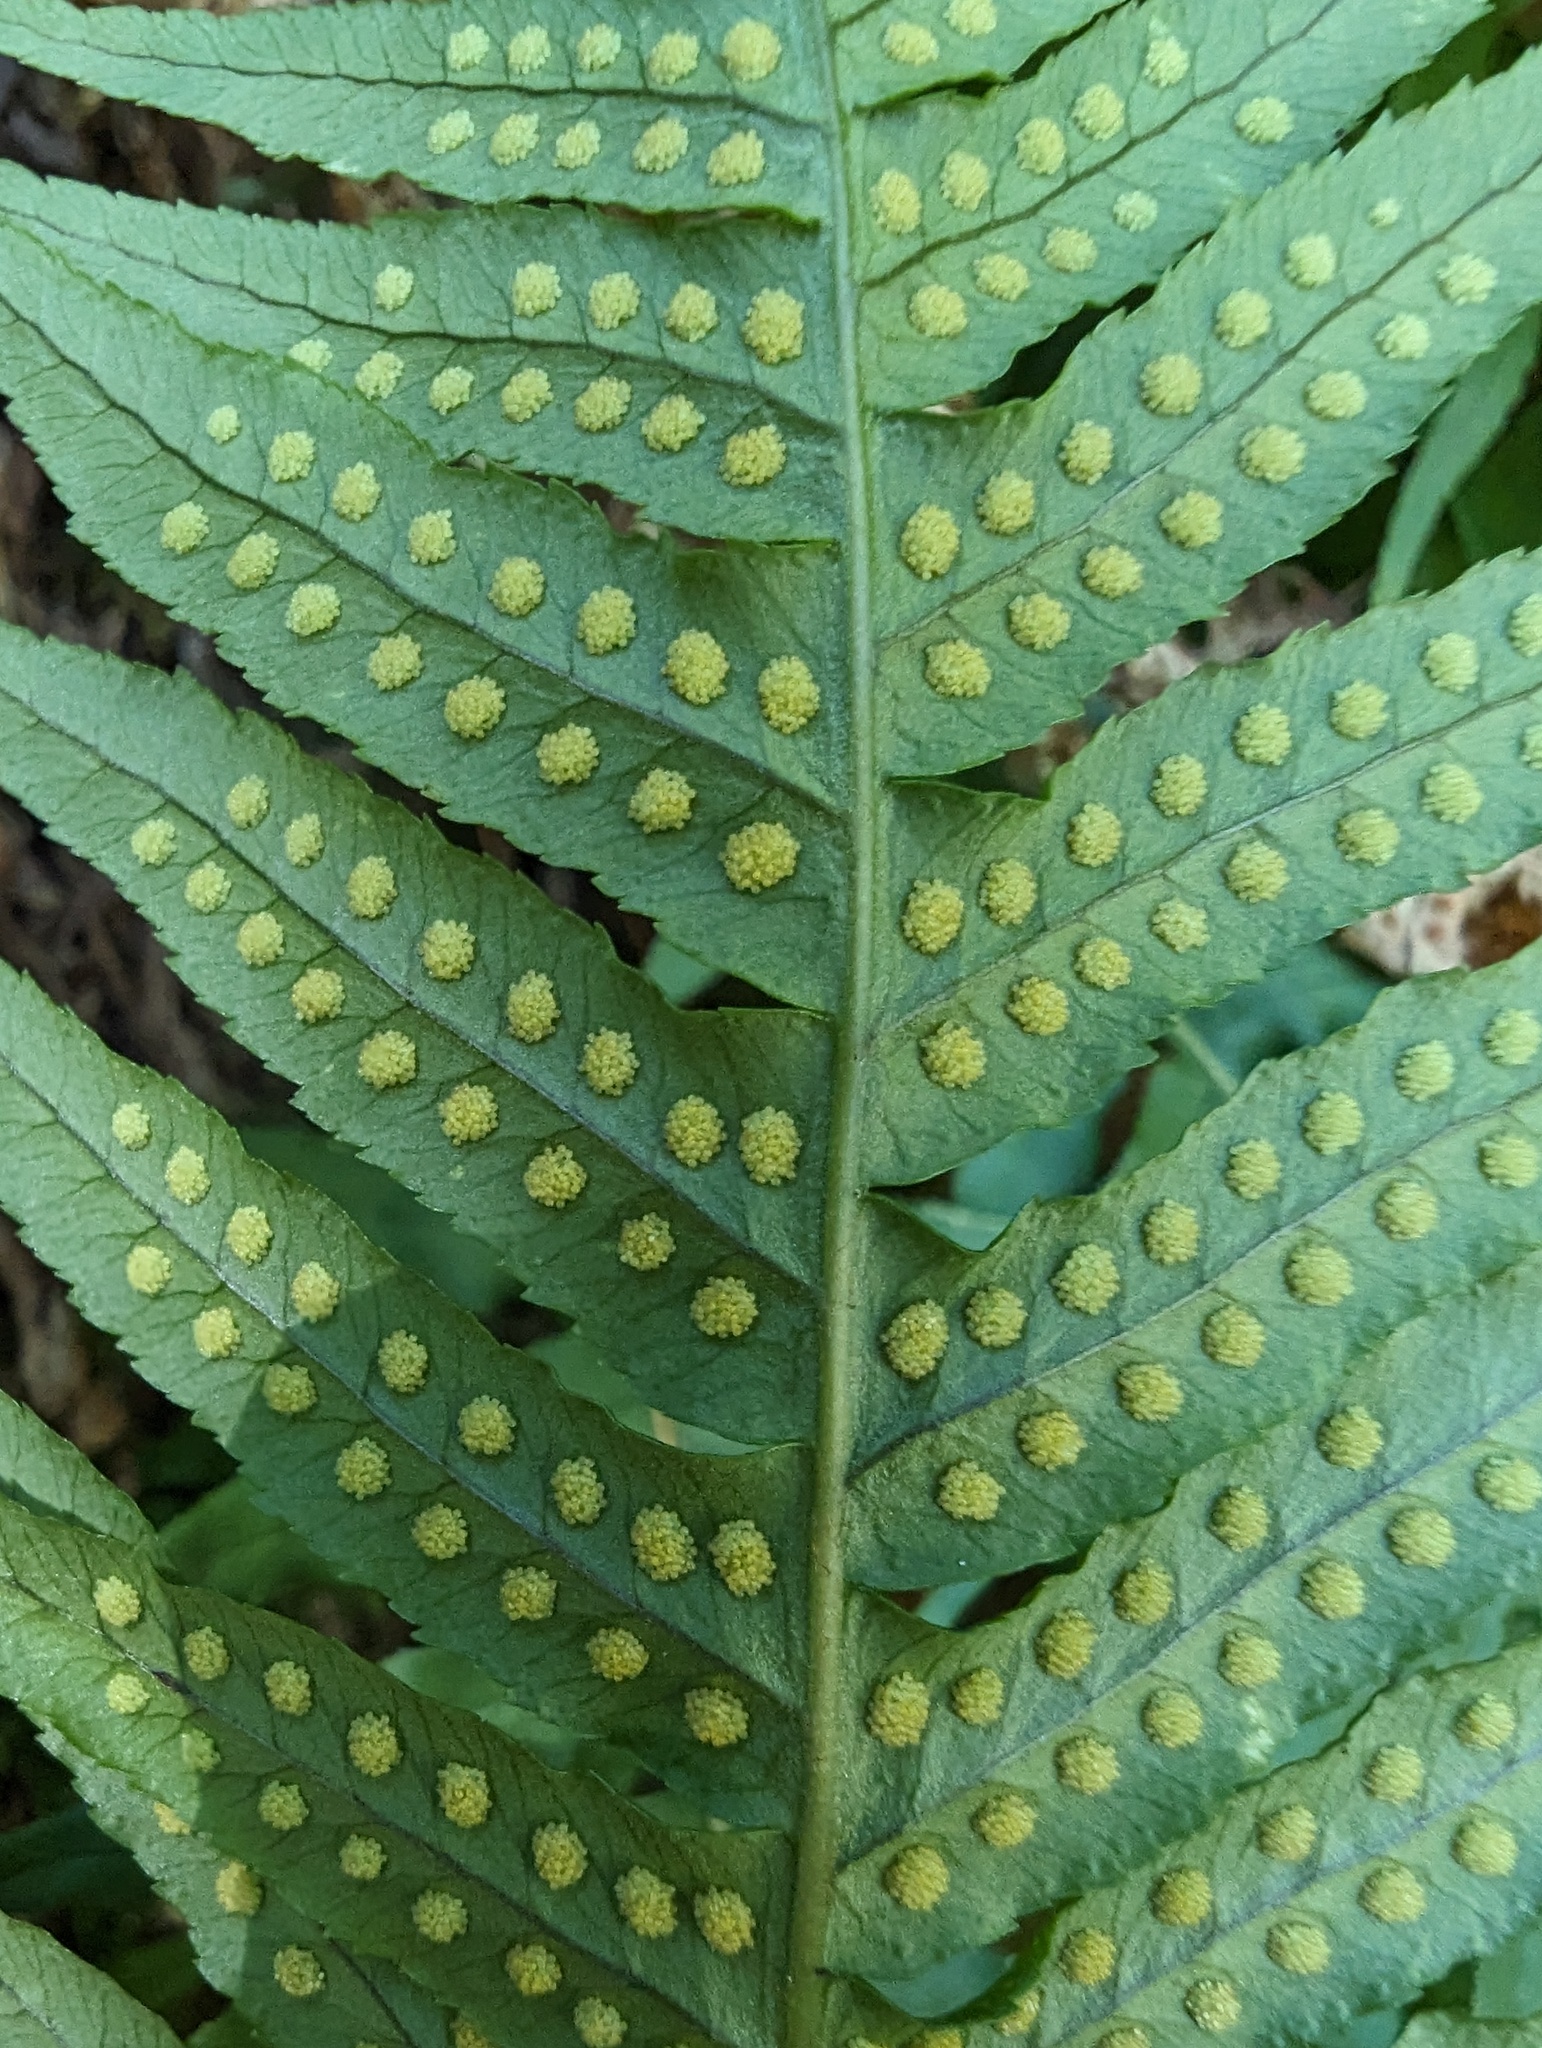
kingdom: Plantae
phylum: Tracheophyta
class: Polypodiopsida
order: Polypodiales
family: Polypodiaceae
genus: Polypodium
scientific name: Polypodium glycyrrhiza
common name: Licorice fern
